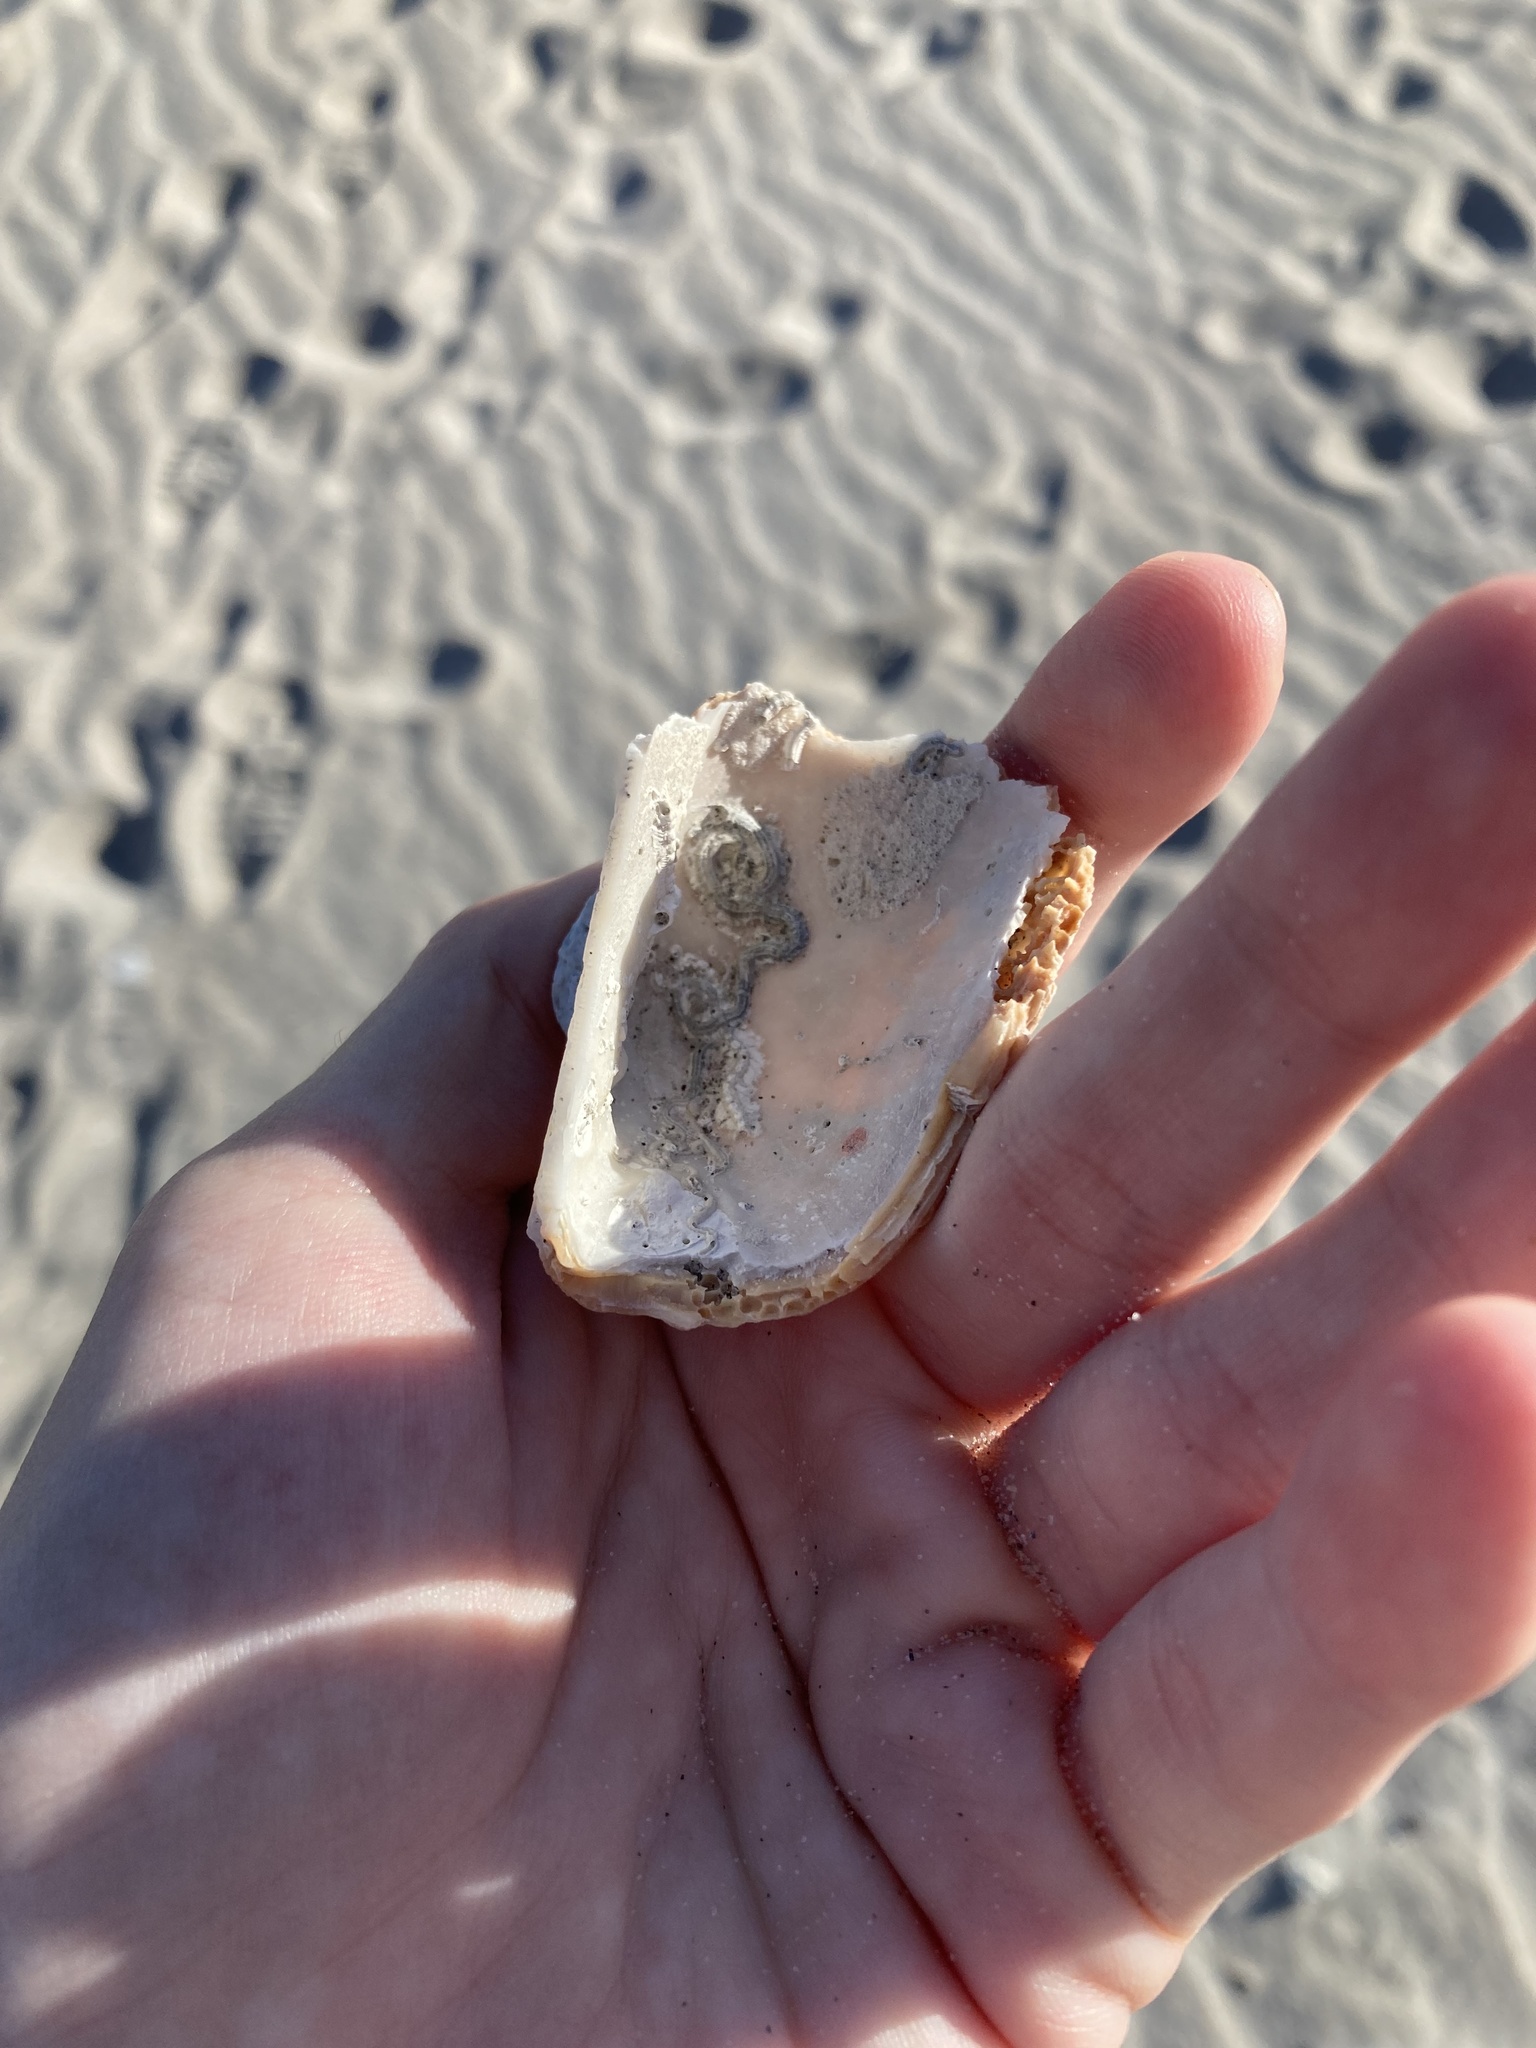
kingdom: Animalia
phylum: Mollusca
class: Bivalvia
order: Arcida
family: Arcidae
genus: Arca
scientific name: Arca zebra
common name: Atlantic turkey wing
